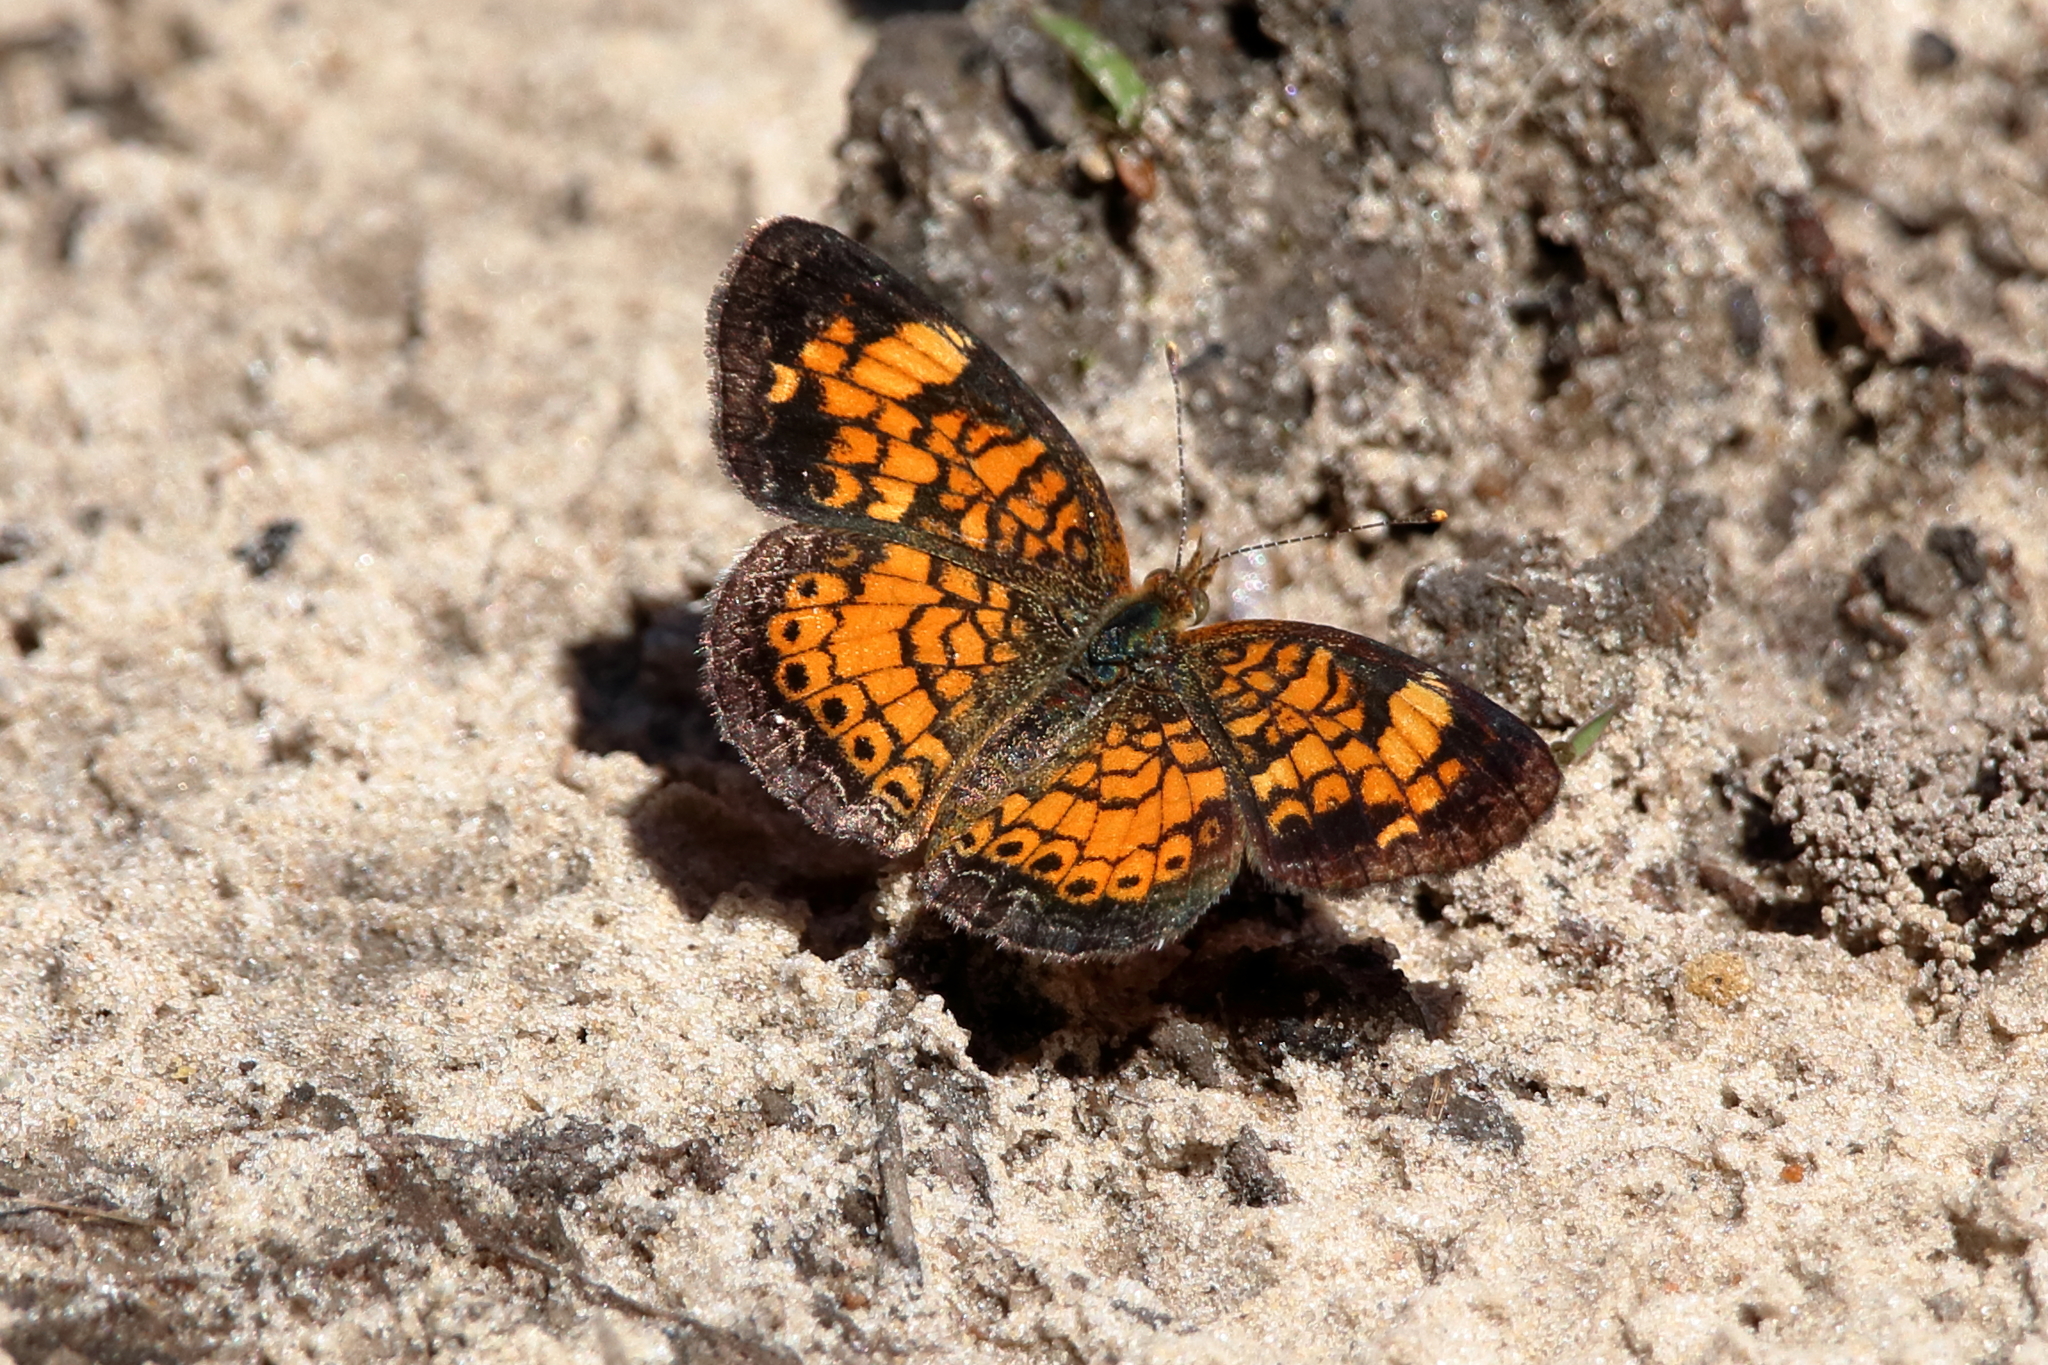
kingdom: Animalia
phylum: Arthropoda
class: Insecta
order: Lepidoptera
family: Nymphalidae
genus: Phyciodes
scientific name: Phyciodes tharos
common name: Pearl crescent
